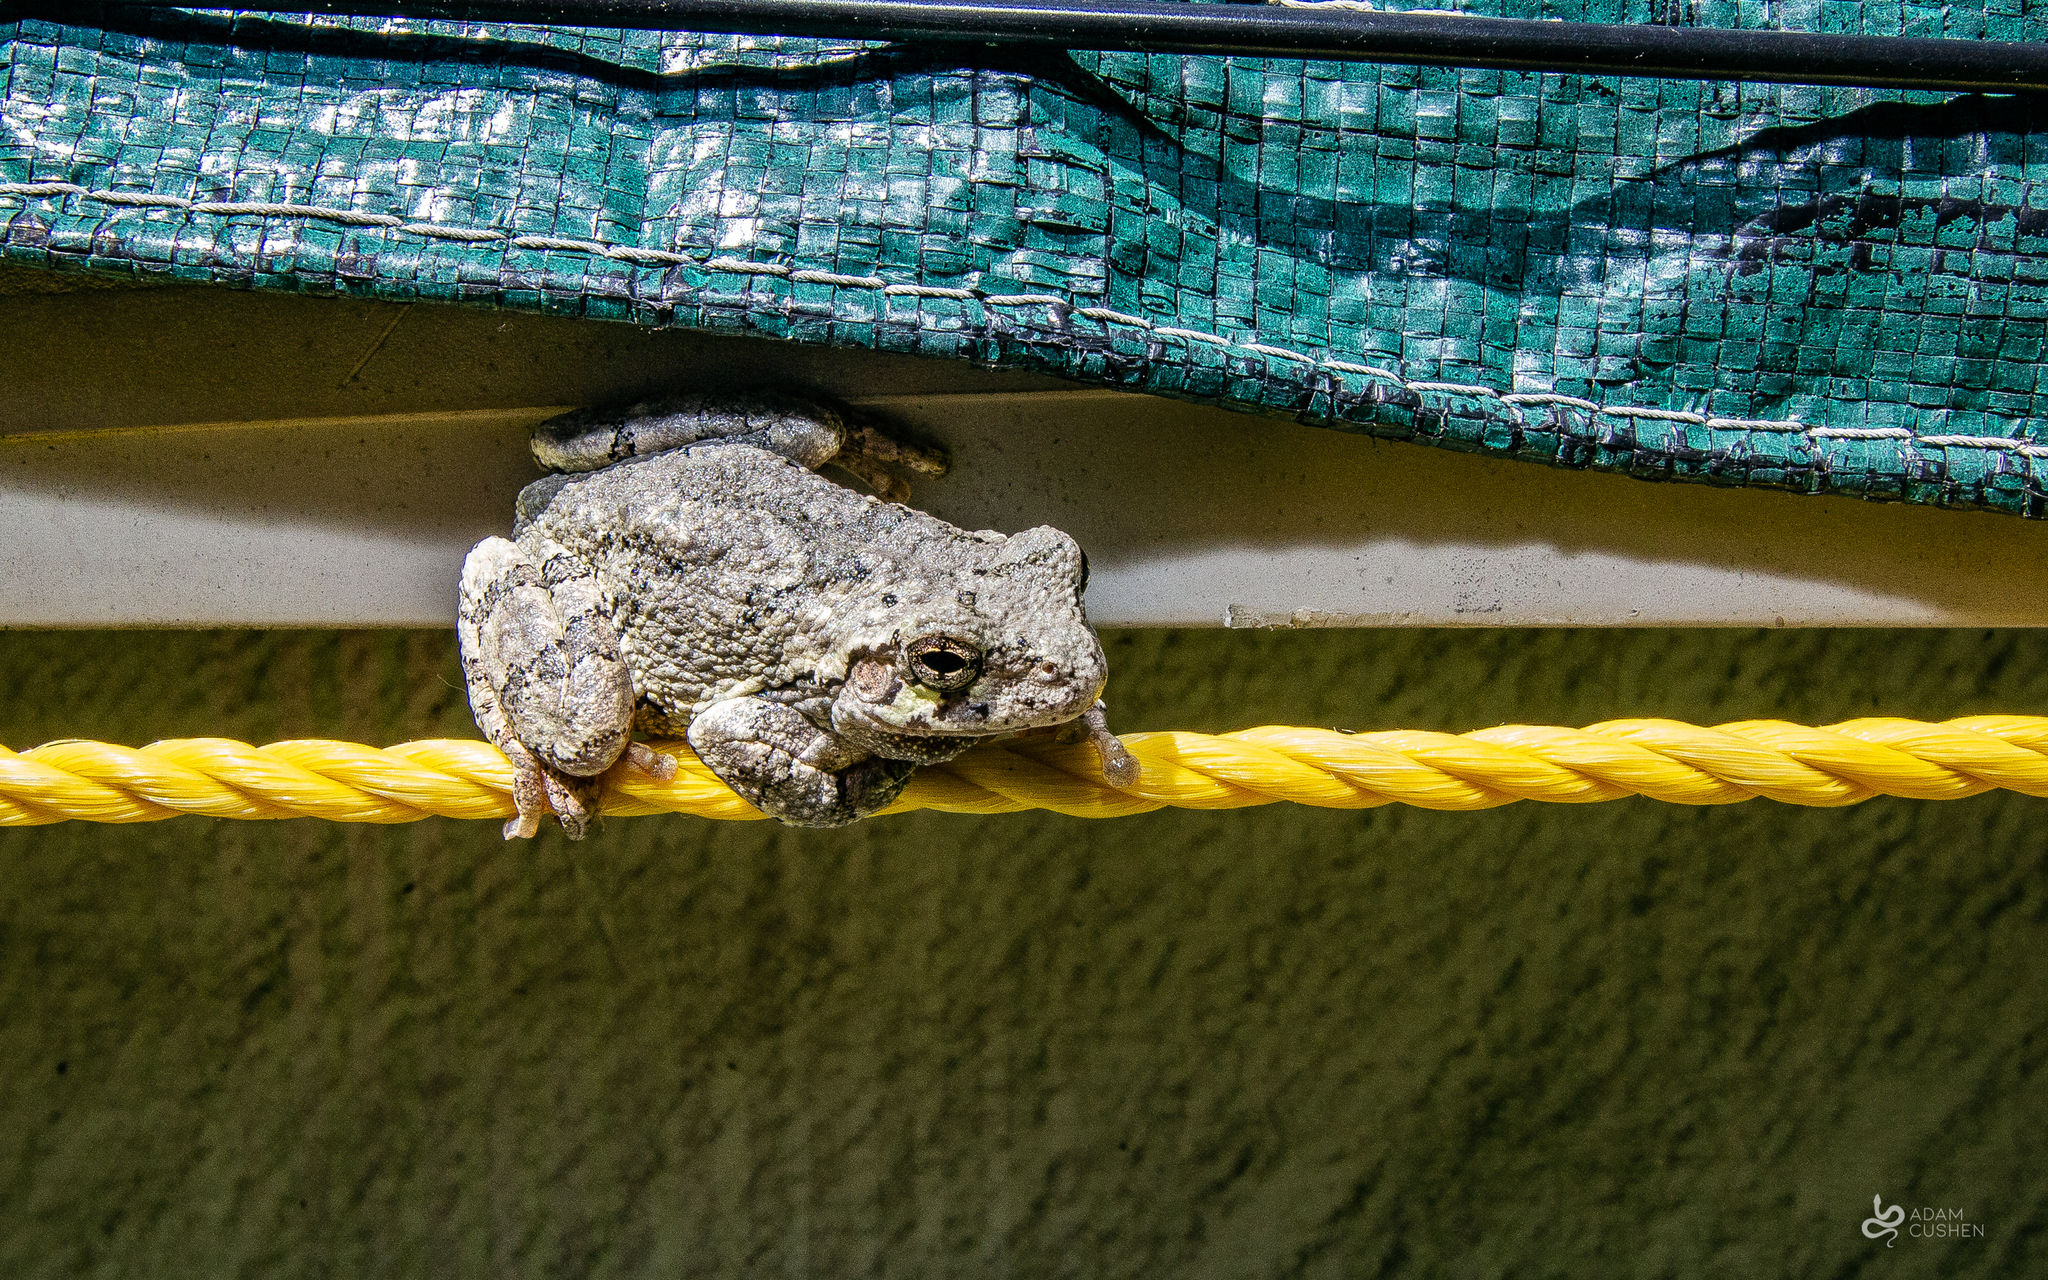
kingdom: Animalia
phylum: Chordata
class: Amphibia
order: Anura
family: Hylidae
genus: Dryophytes
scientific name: Dryophytes versicolor
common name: Gray treefrog
